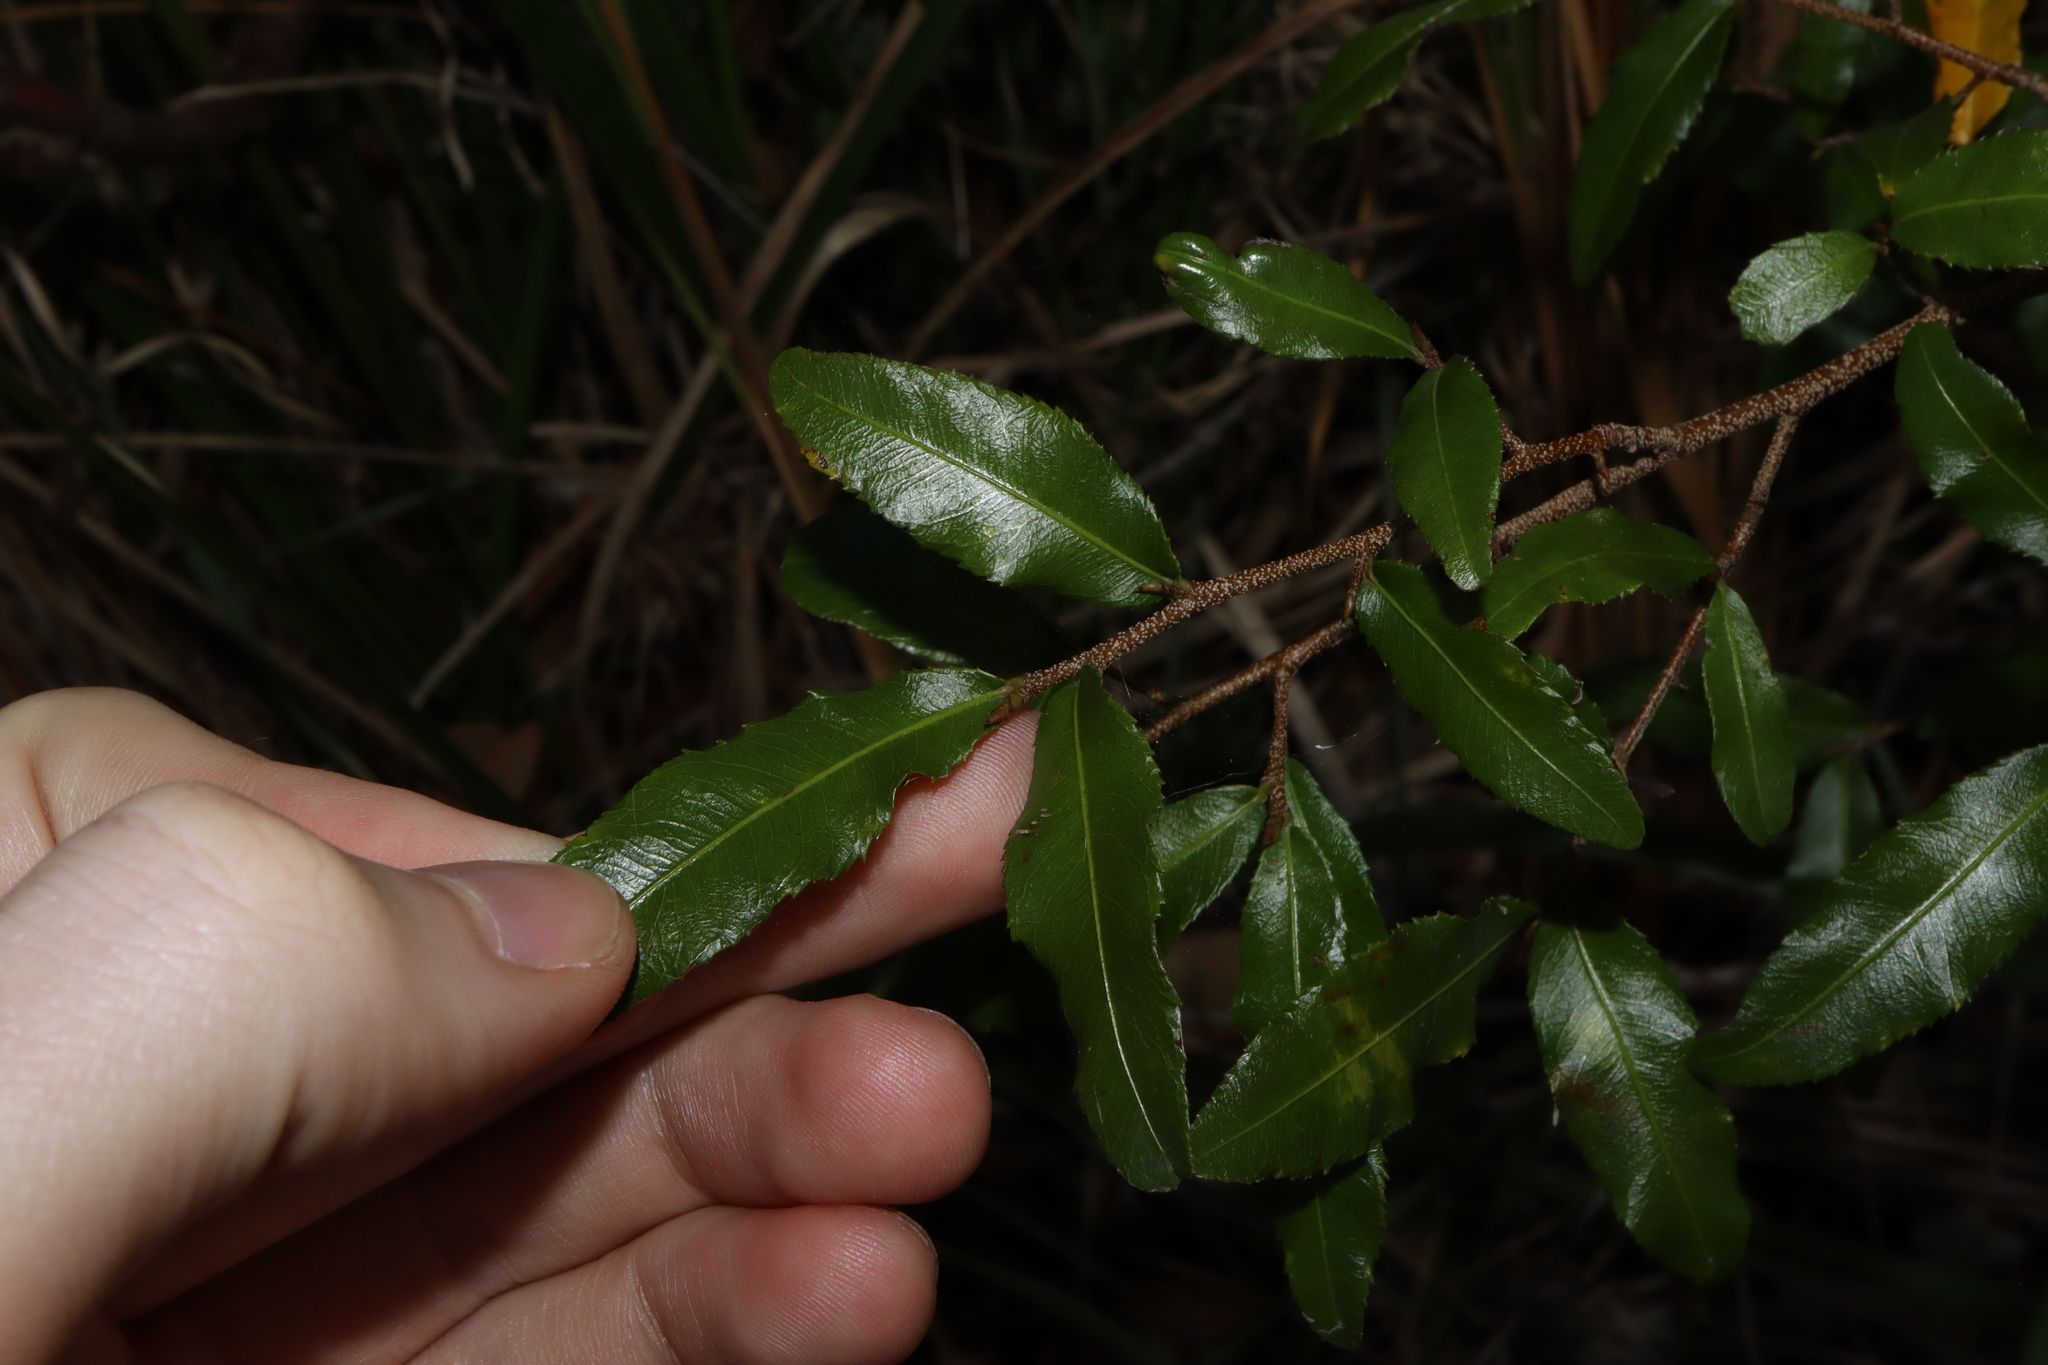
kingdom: Plantae
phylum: Tracheophyta
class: Magnoliopsida
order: Malpighiales
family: Ochnaceae
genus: Ochna
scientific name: Ochna serrulata
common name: Mickey mouse plant
